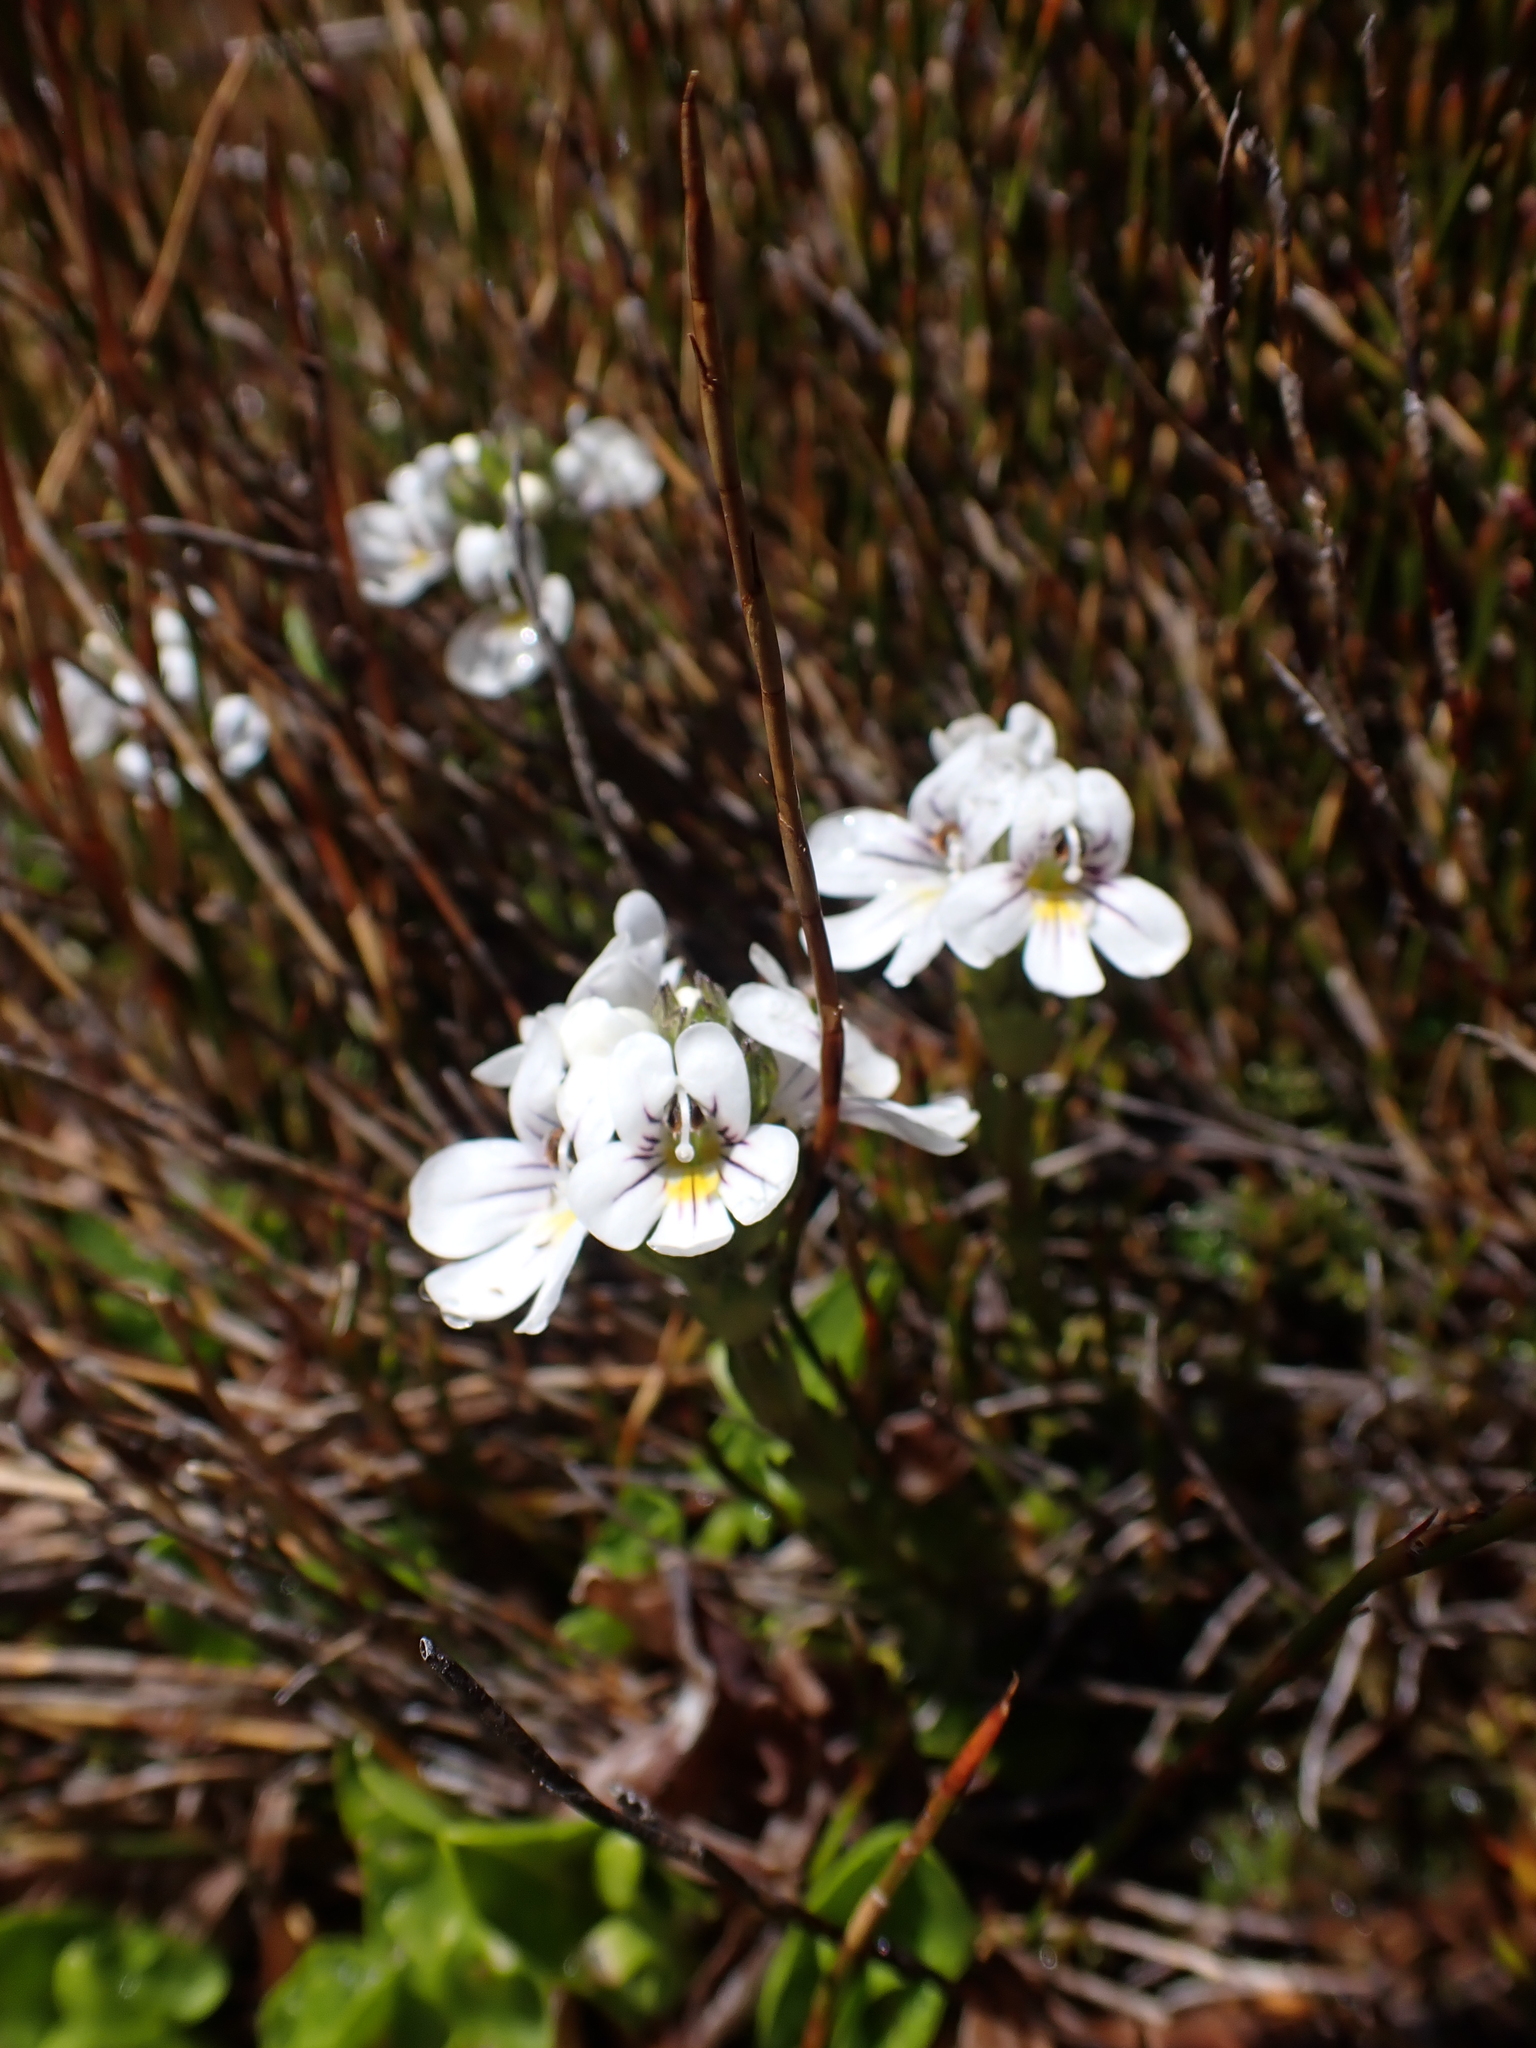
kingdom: Plantae
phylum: Tracheophyta
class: Magnoliopsida
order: Lamiales
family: Orobanchaceae
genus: Euphrasia
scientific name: Euphrasia gibbsiae
